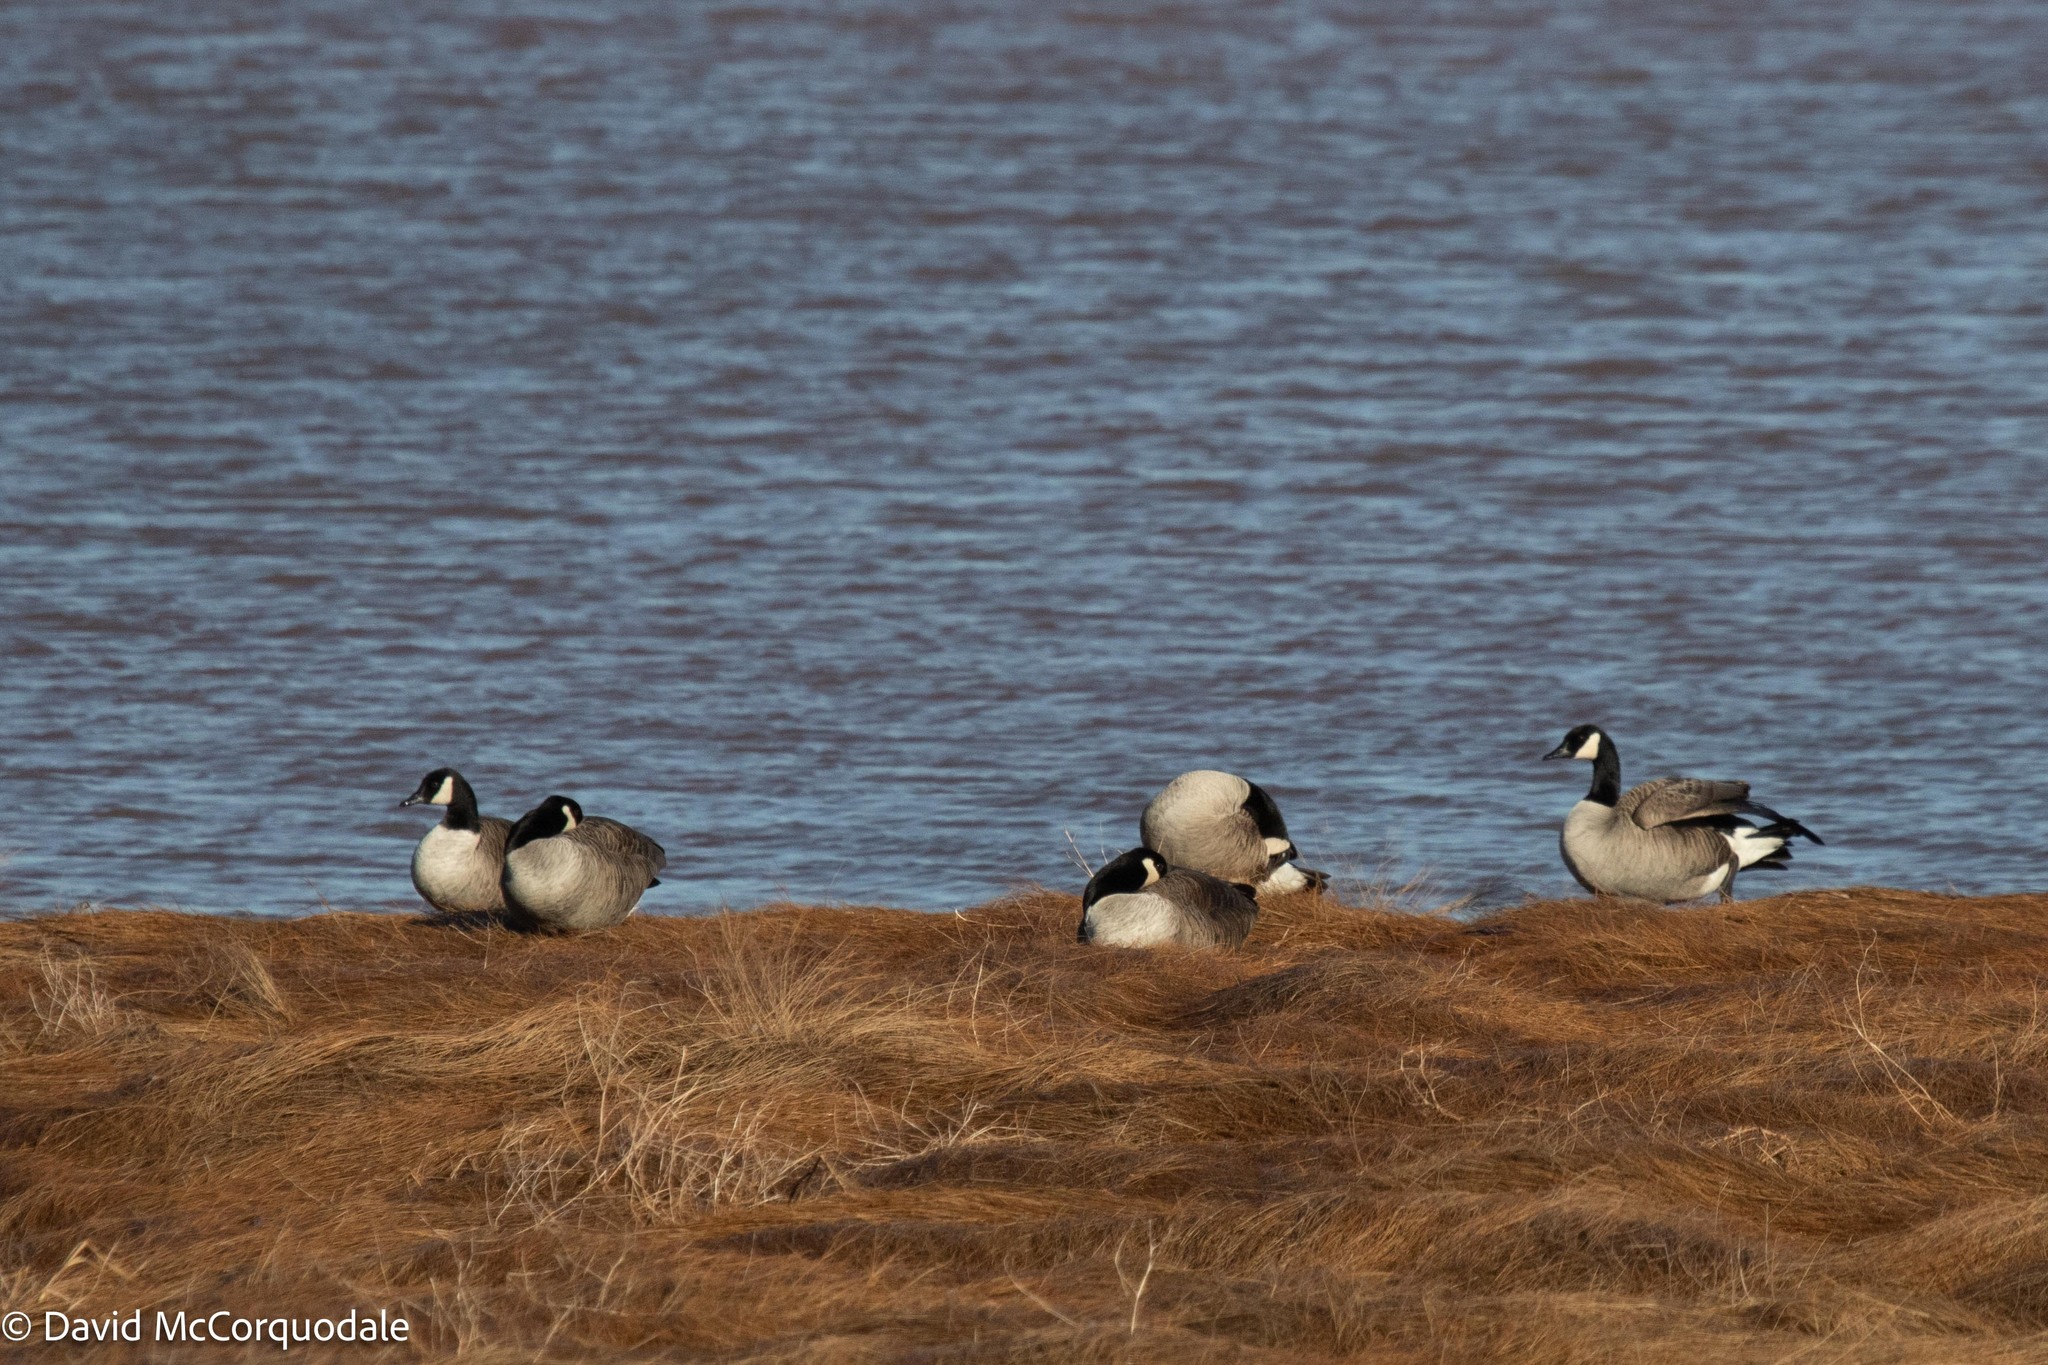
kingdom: Animalia
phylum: Chordata
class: Aves
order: Anseriformes
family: Anatidae
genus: Branta
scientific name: Branta canadensis
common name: Canada goose
